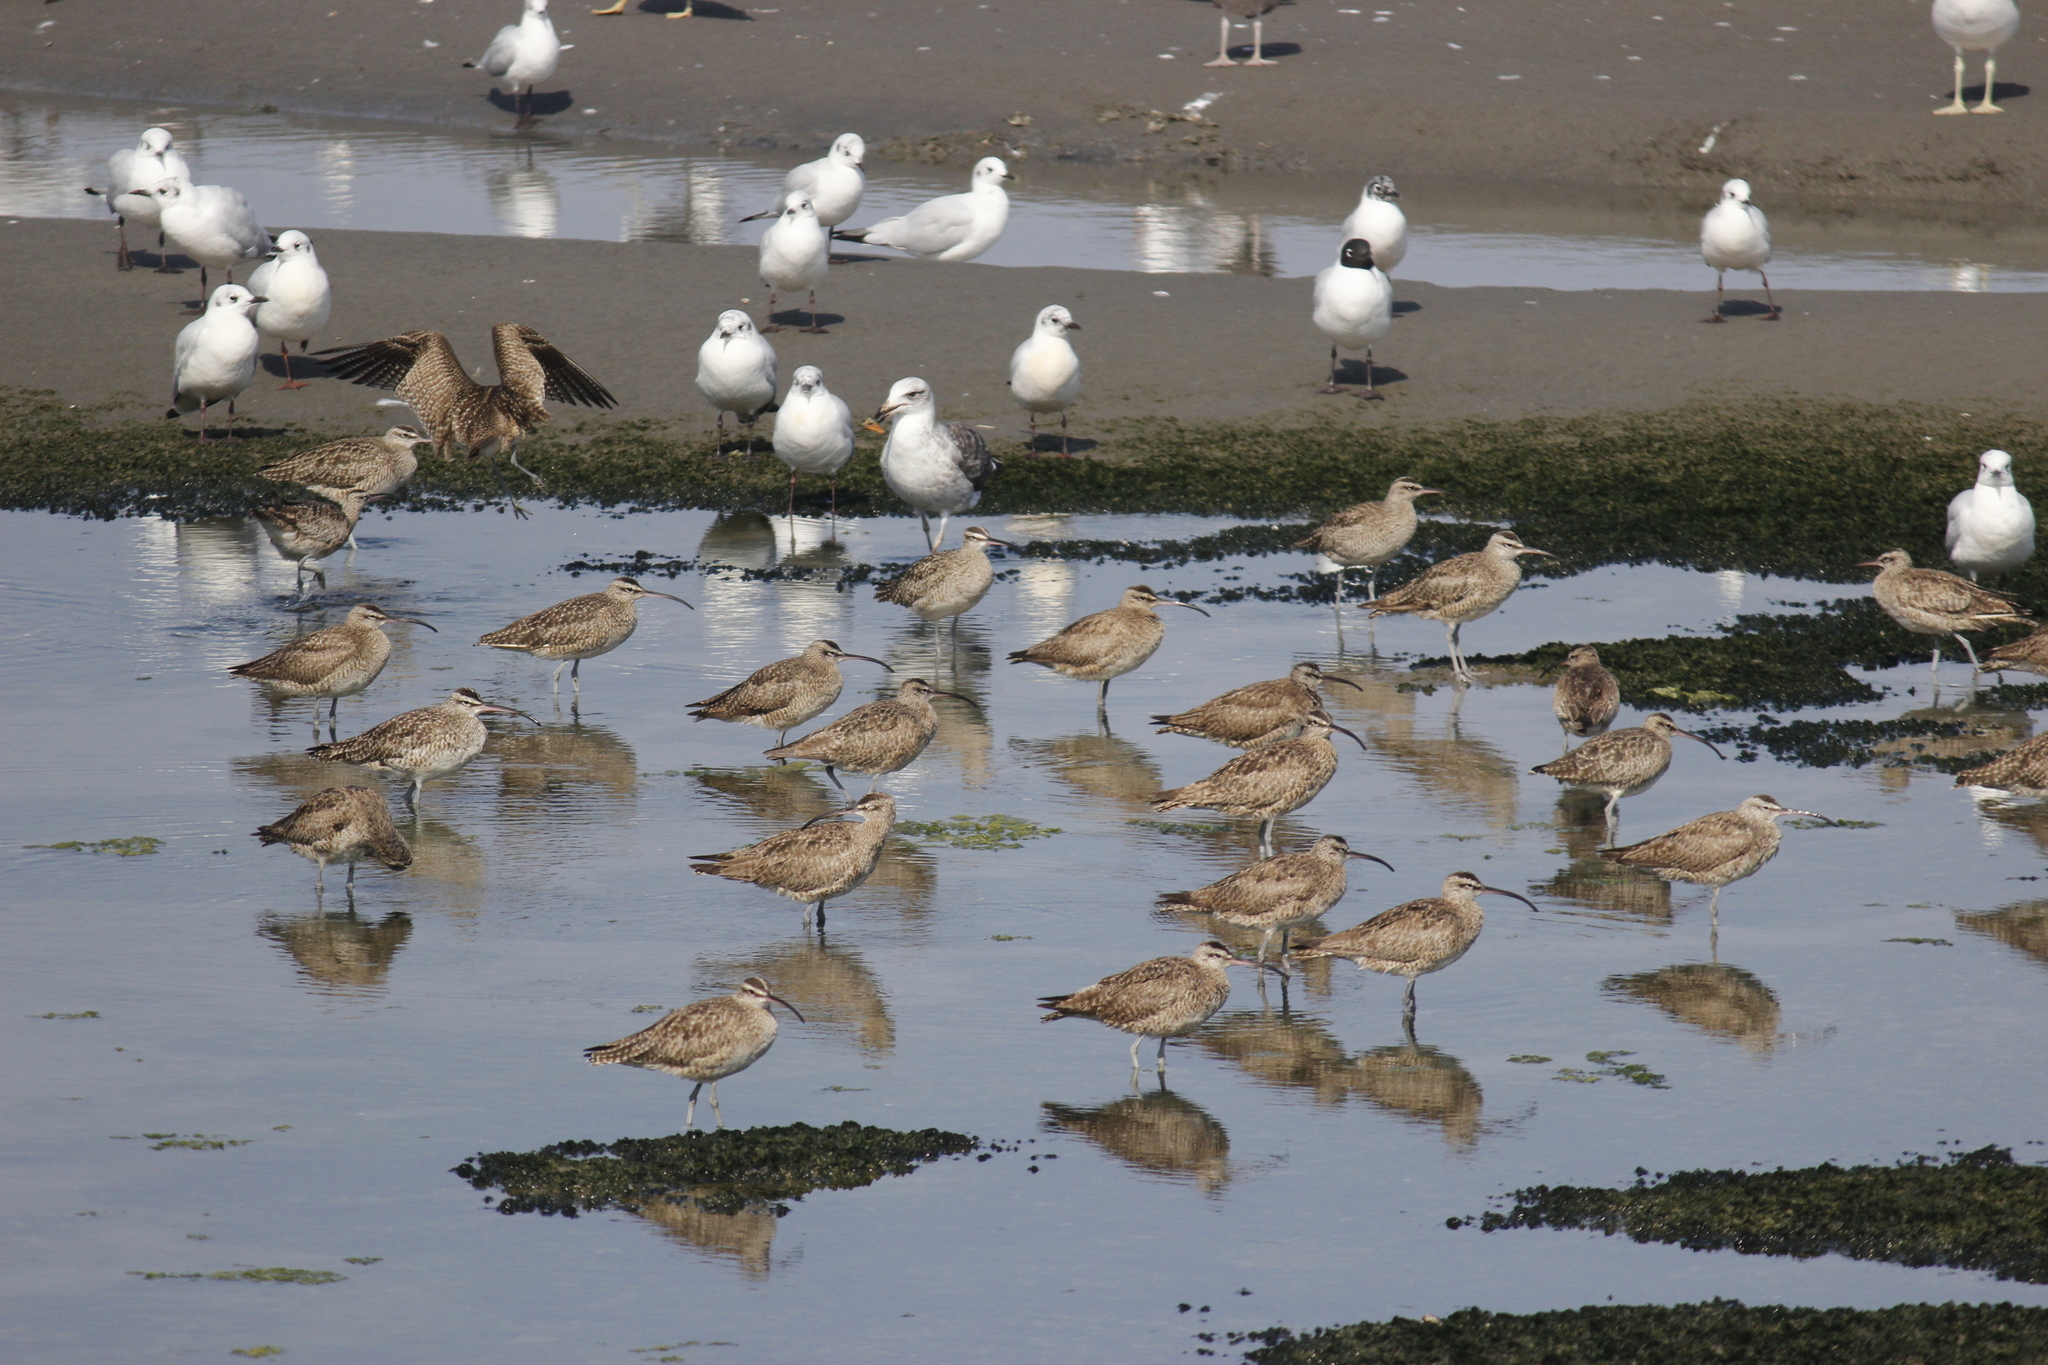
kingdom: Animalia
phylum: Chordata
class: Aves
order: Charadriiformes
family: Scolopacidae
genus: Numenius
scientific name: Numenius phaeopus
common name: Whimbrel
